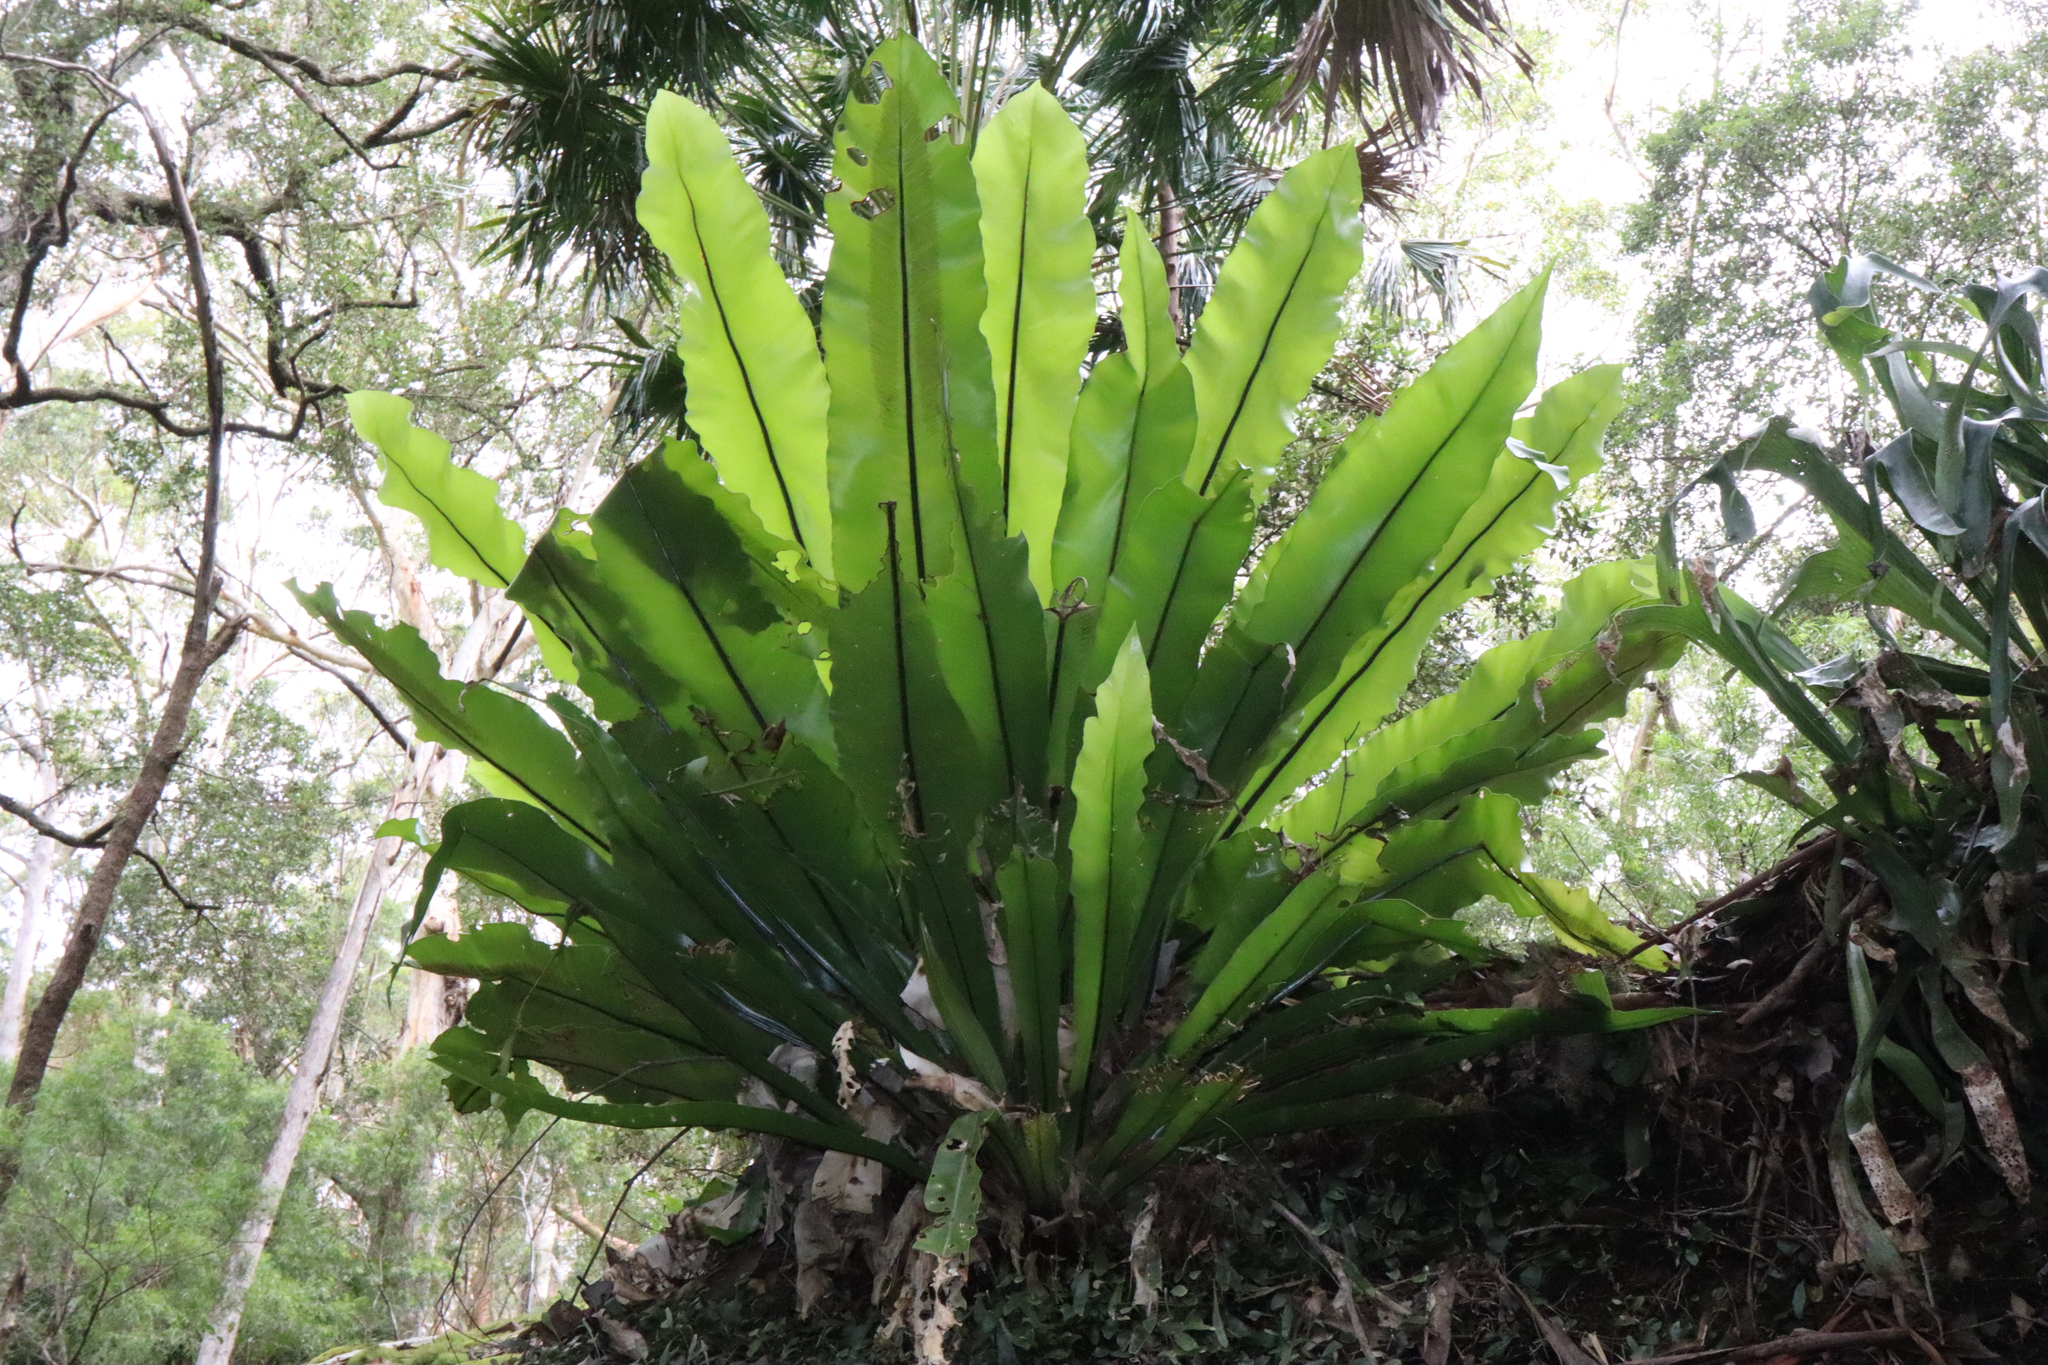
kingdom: Plantae
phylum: Tracheophyta
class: Polypodiopsida
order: Polypodiales
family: Aspleniaceae
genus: Asplenium
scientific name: Asplenium australasicum
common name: Bird's-nest fern
